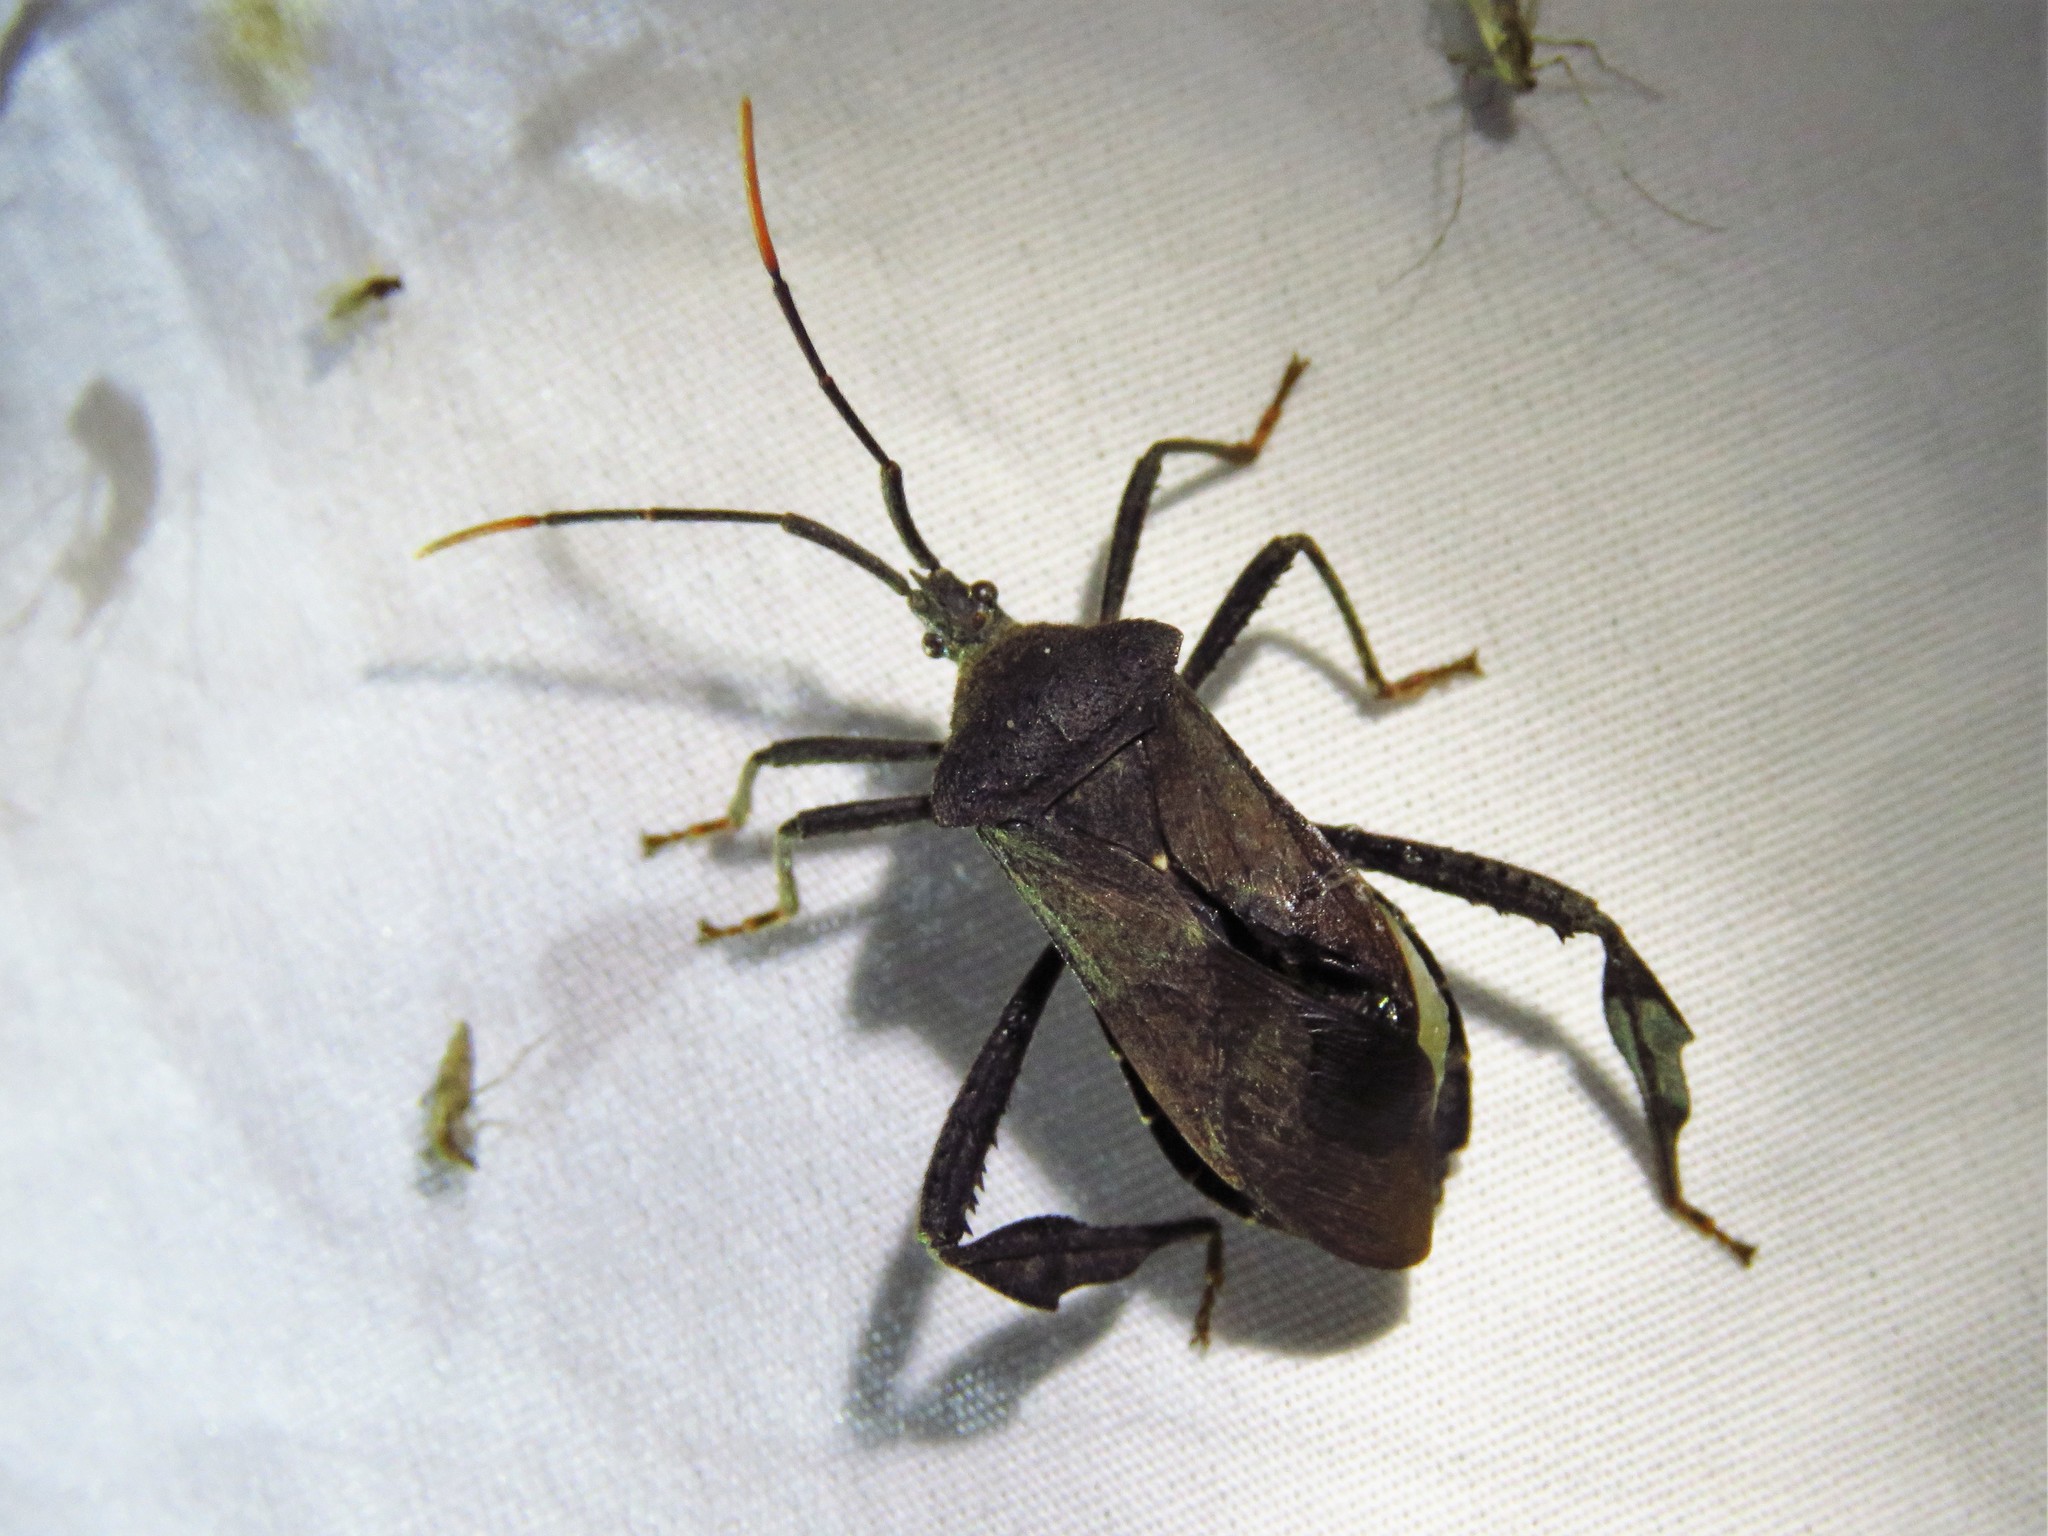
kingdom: Animalia
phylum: Arthropoda
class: Insecta
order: Hemiptera
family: Coreidae
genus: Acanthocephala
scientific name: Acanthocephala terminalis
